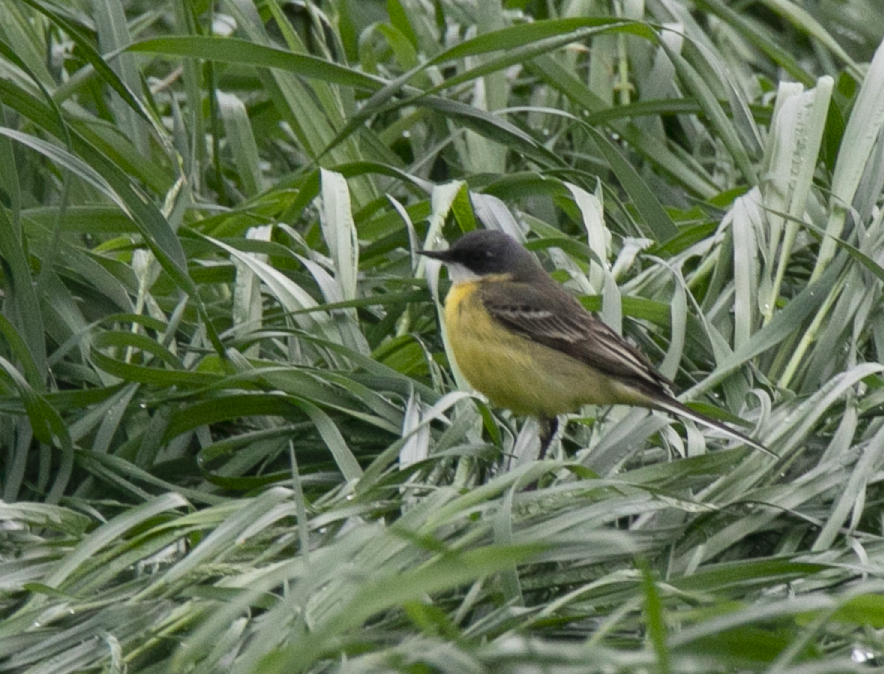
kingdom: Animalia
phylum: Chordata
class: Aves
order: Passeriformes
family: Motacillidae
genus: Motacilla
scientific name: Motacilla flava
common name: Western yellow wagtail
